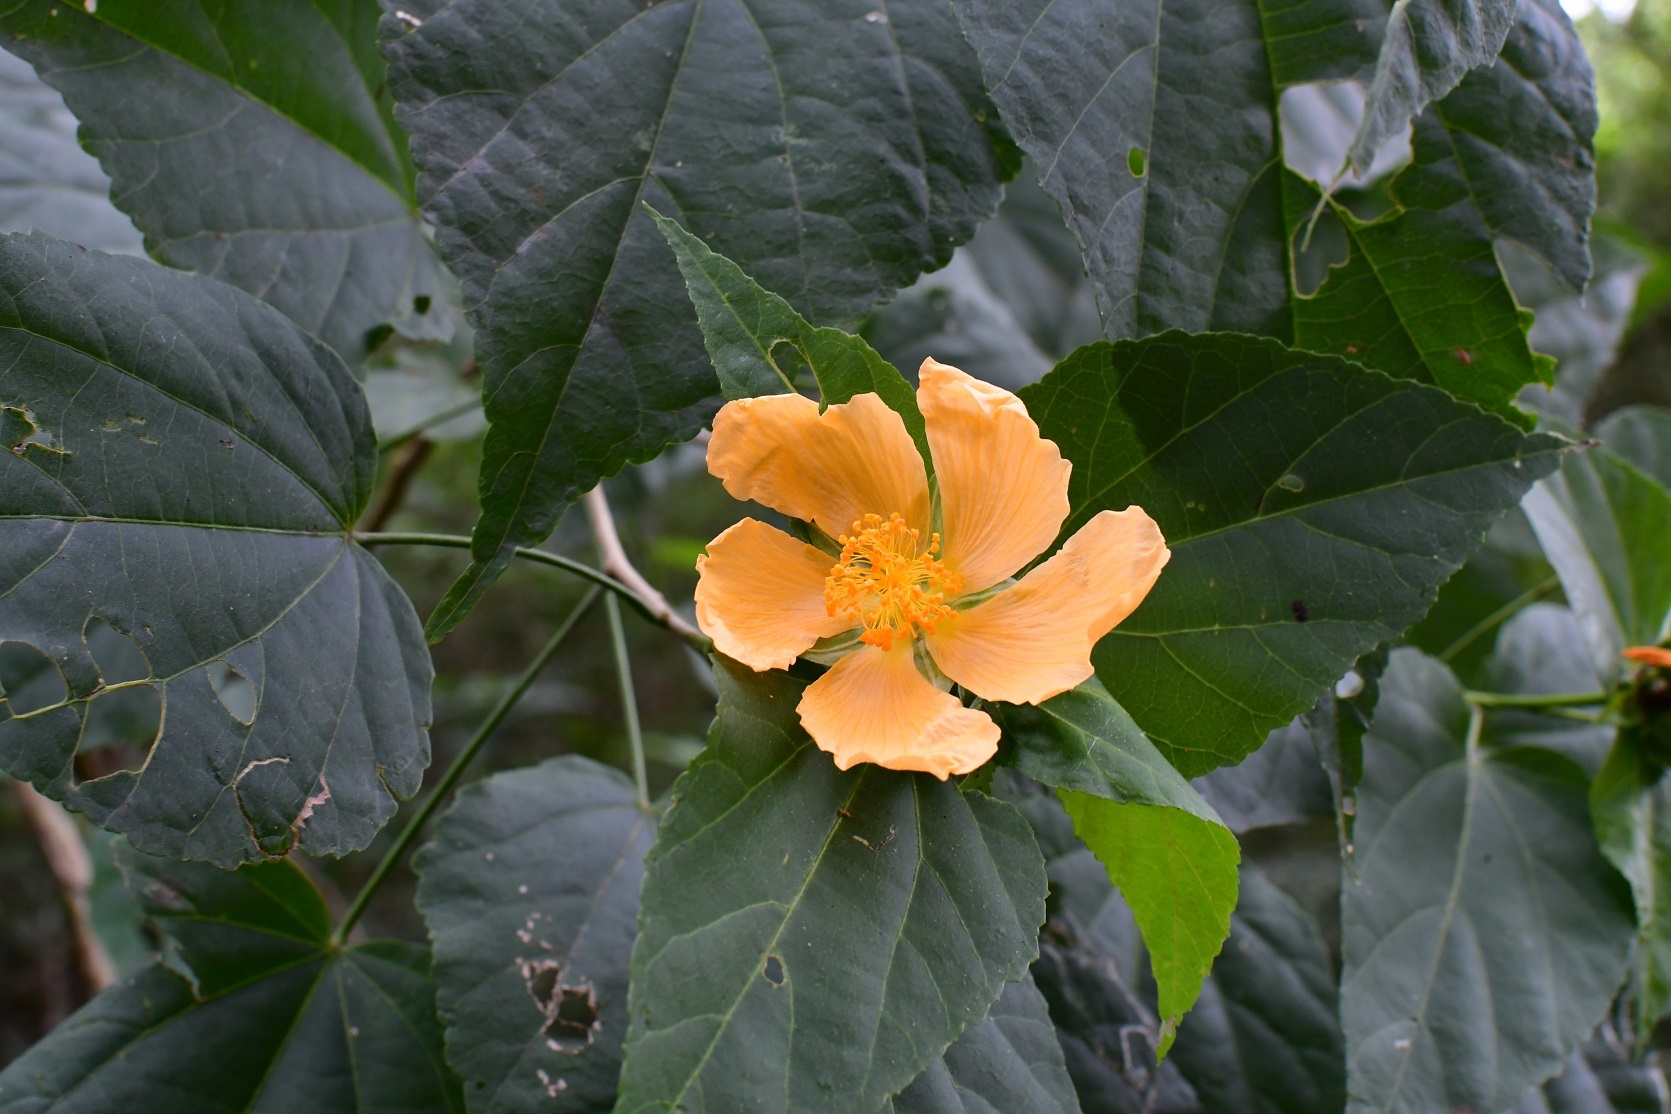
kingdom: Plantae
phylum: Tracheophyta
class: Magnoliopsida
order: Malvales
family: Malvaceae
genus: Dendrosida
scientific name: Dendrosida sharpiana
